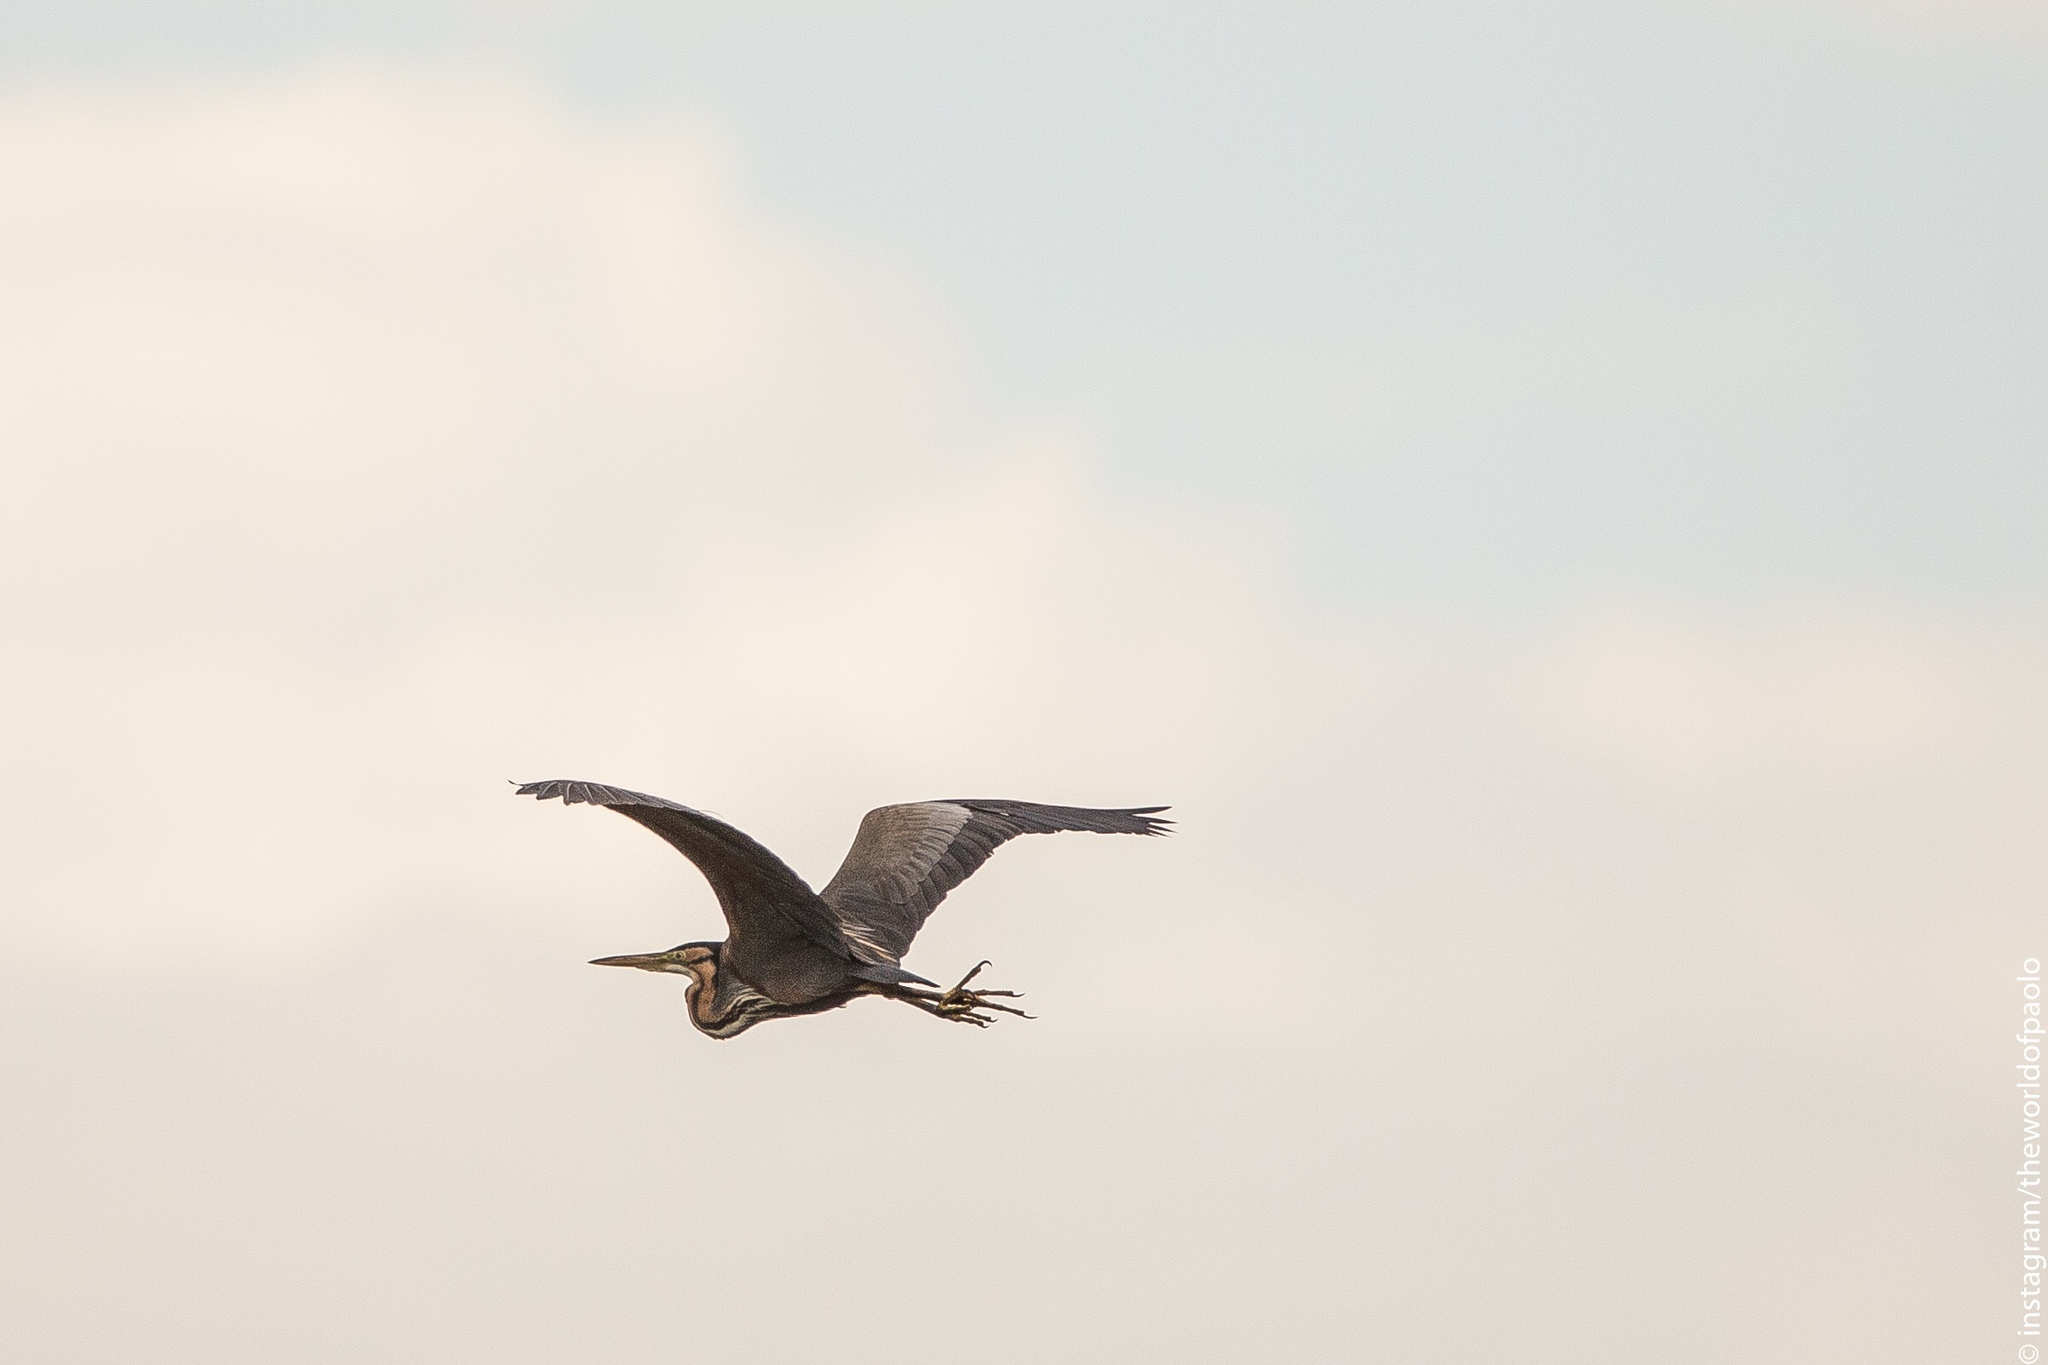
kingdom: Animalia
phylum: Chordata
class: Aves
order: Pelecaniformes
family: Ardeidae
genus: Ardea
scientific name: Ardea purpurea
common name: Purple heron
